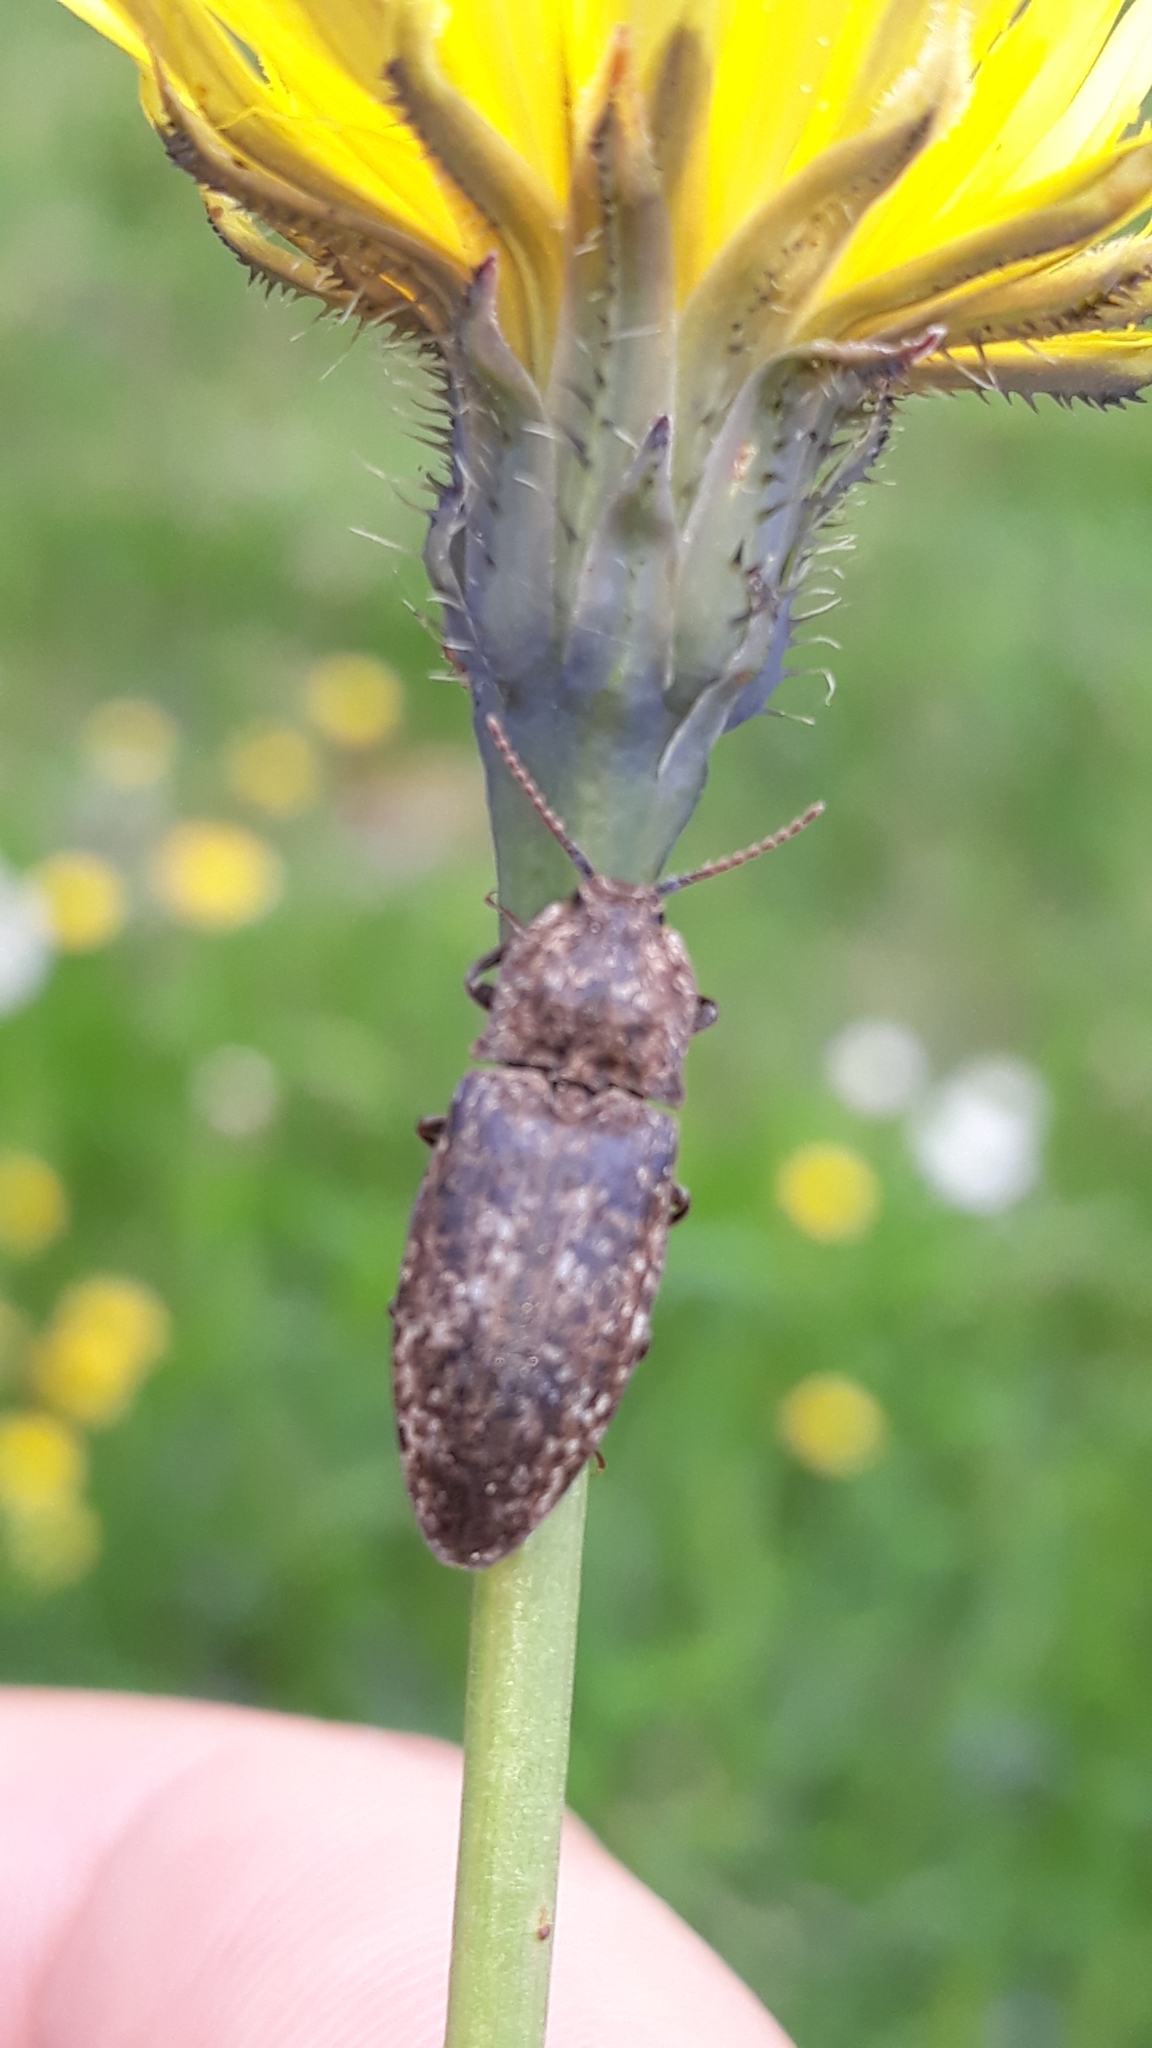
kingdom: Animalia
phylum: Arthropoda
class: Insecta
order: Coleoptera
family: Elateridae
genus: Agrypnus
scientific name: Agrypnus murinus
